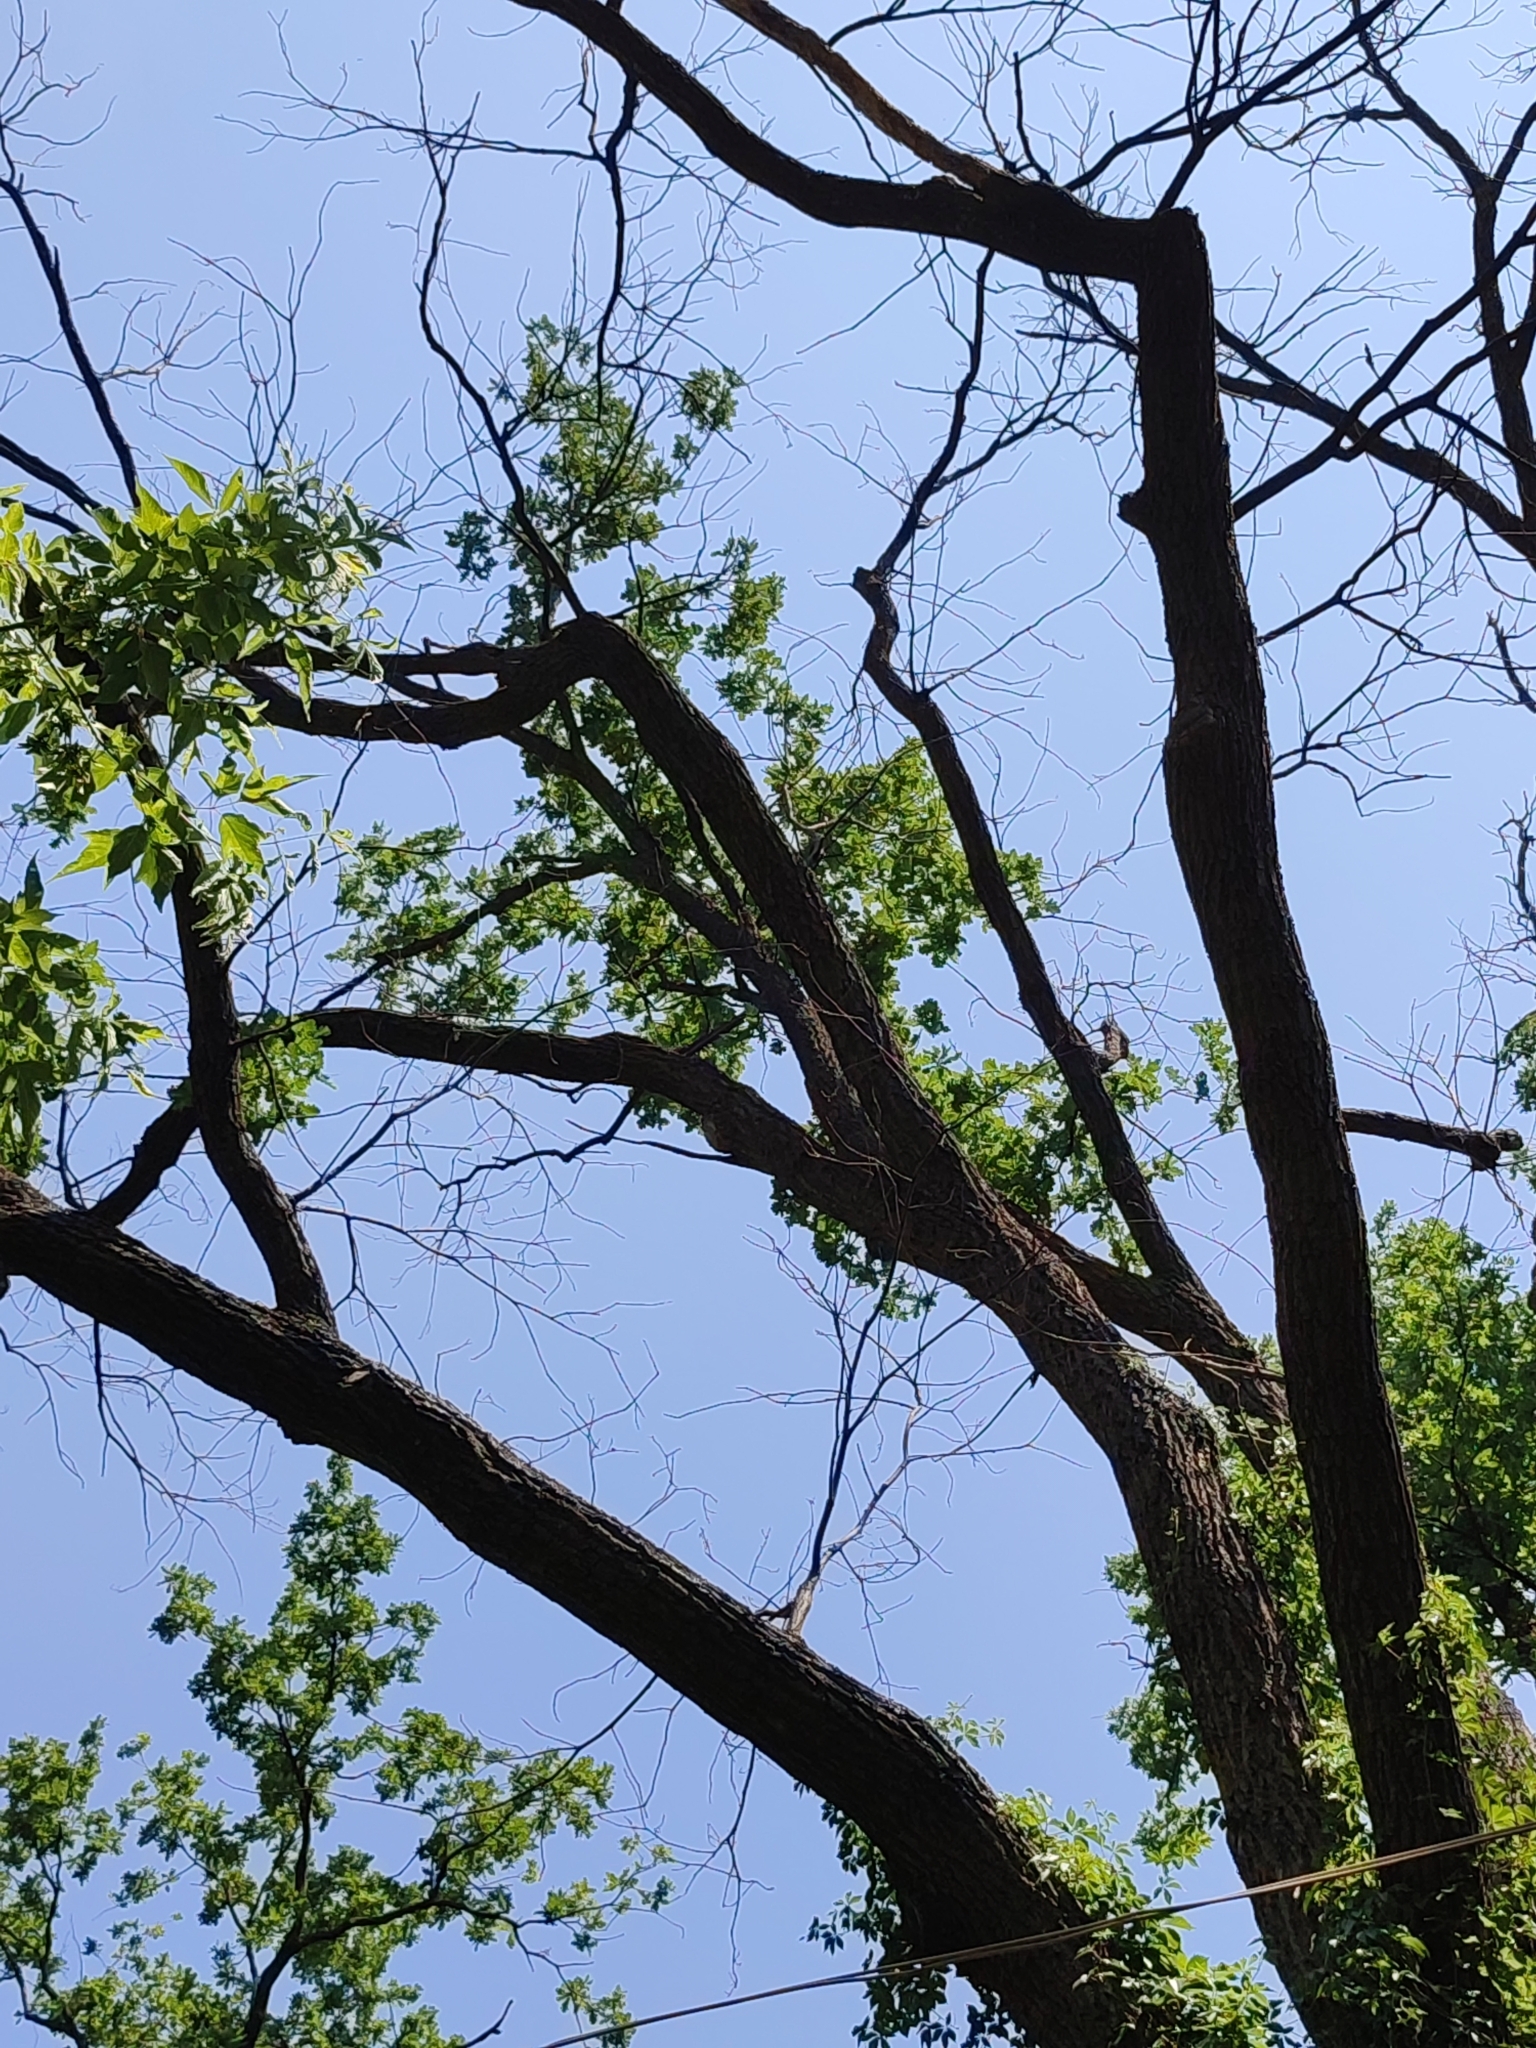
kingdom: Plantae
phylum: Tracheophyta
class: Magnoliopsida
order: Fagales
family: Fagaceae
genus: Quercus
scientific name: Quercus robur
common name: Pedunculate oak
